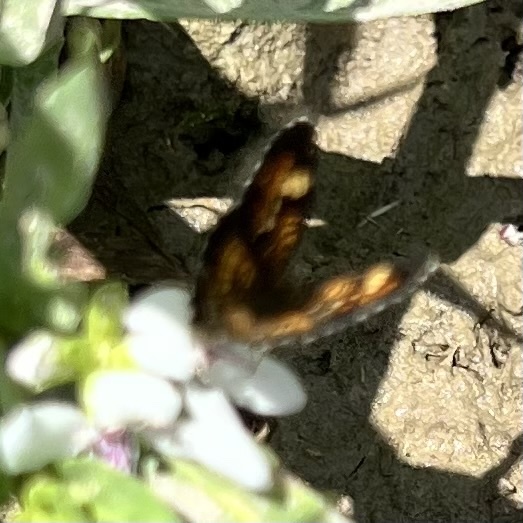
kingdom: Animalia
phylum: Arthropoda
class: Insecta
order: Lepidoptera
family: Nymphalidae
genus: Phyciodes
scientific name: Phyciodes phaon
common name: Phaon crescent
